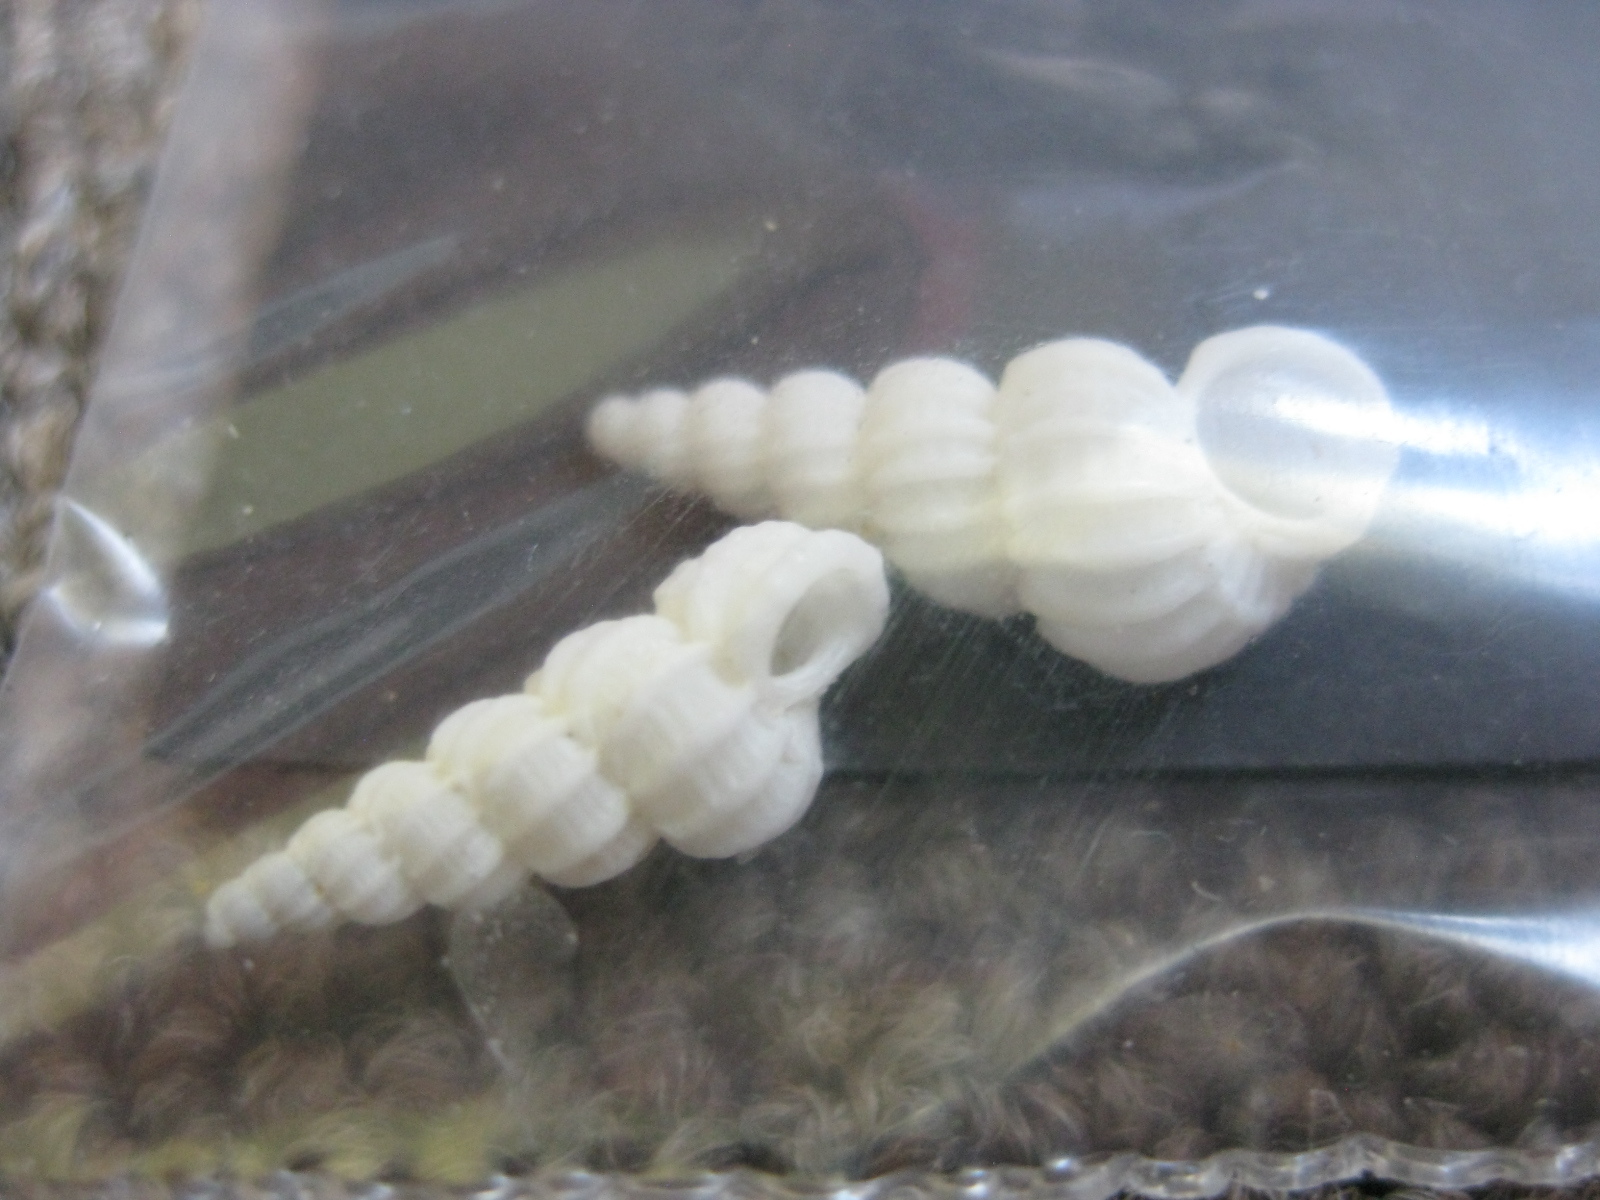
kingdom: Animalia
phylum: Mollusca
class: Gastropoda
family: Epitoniidae
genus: Cirsotrema
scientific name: Cirsotrema zelebori
